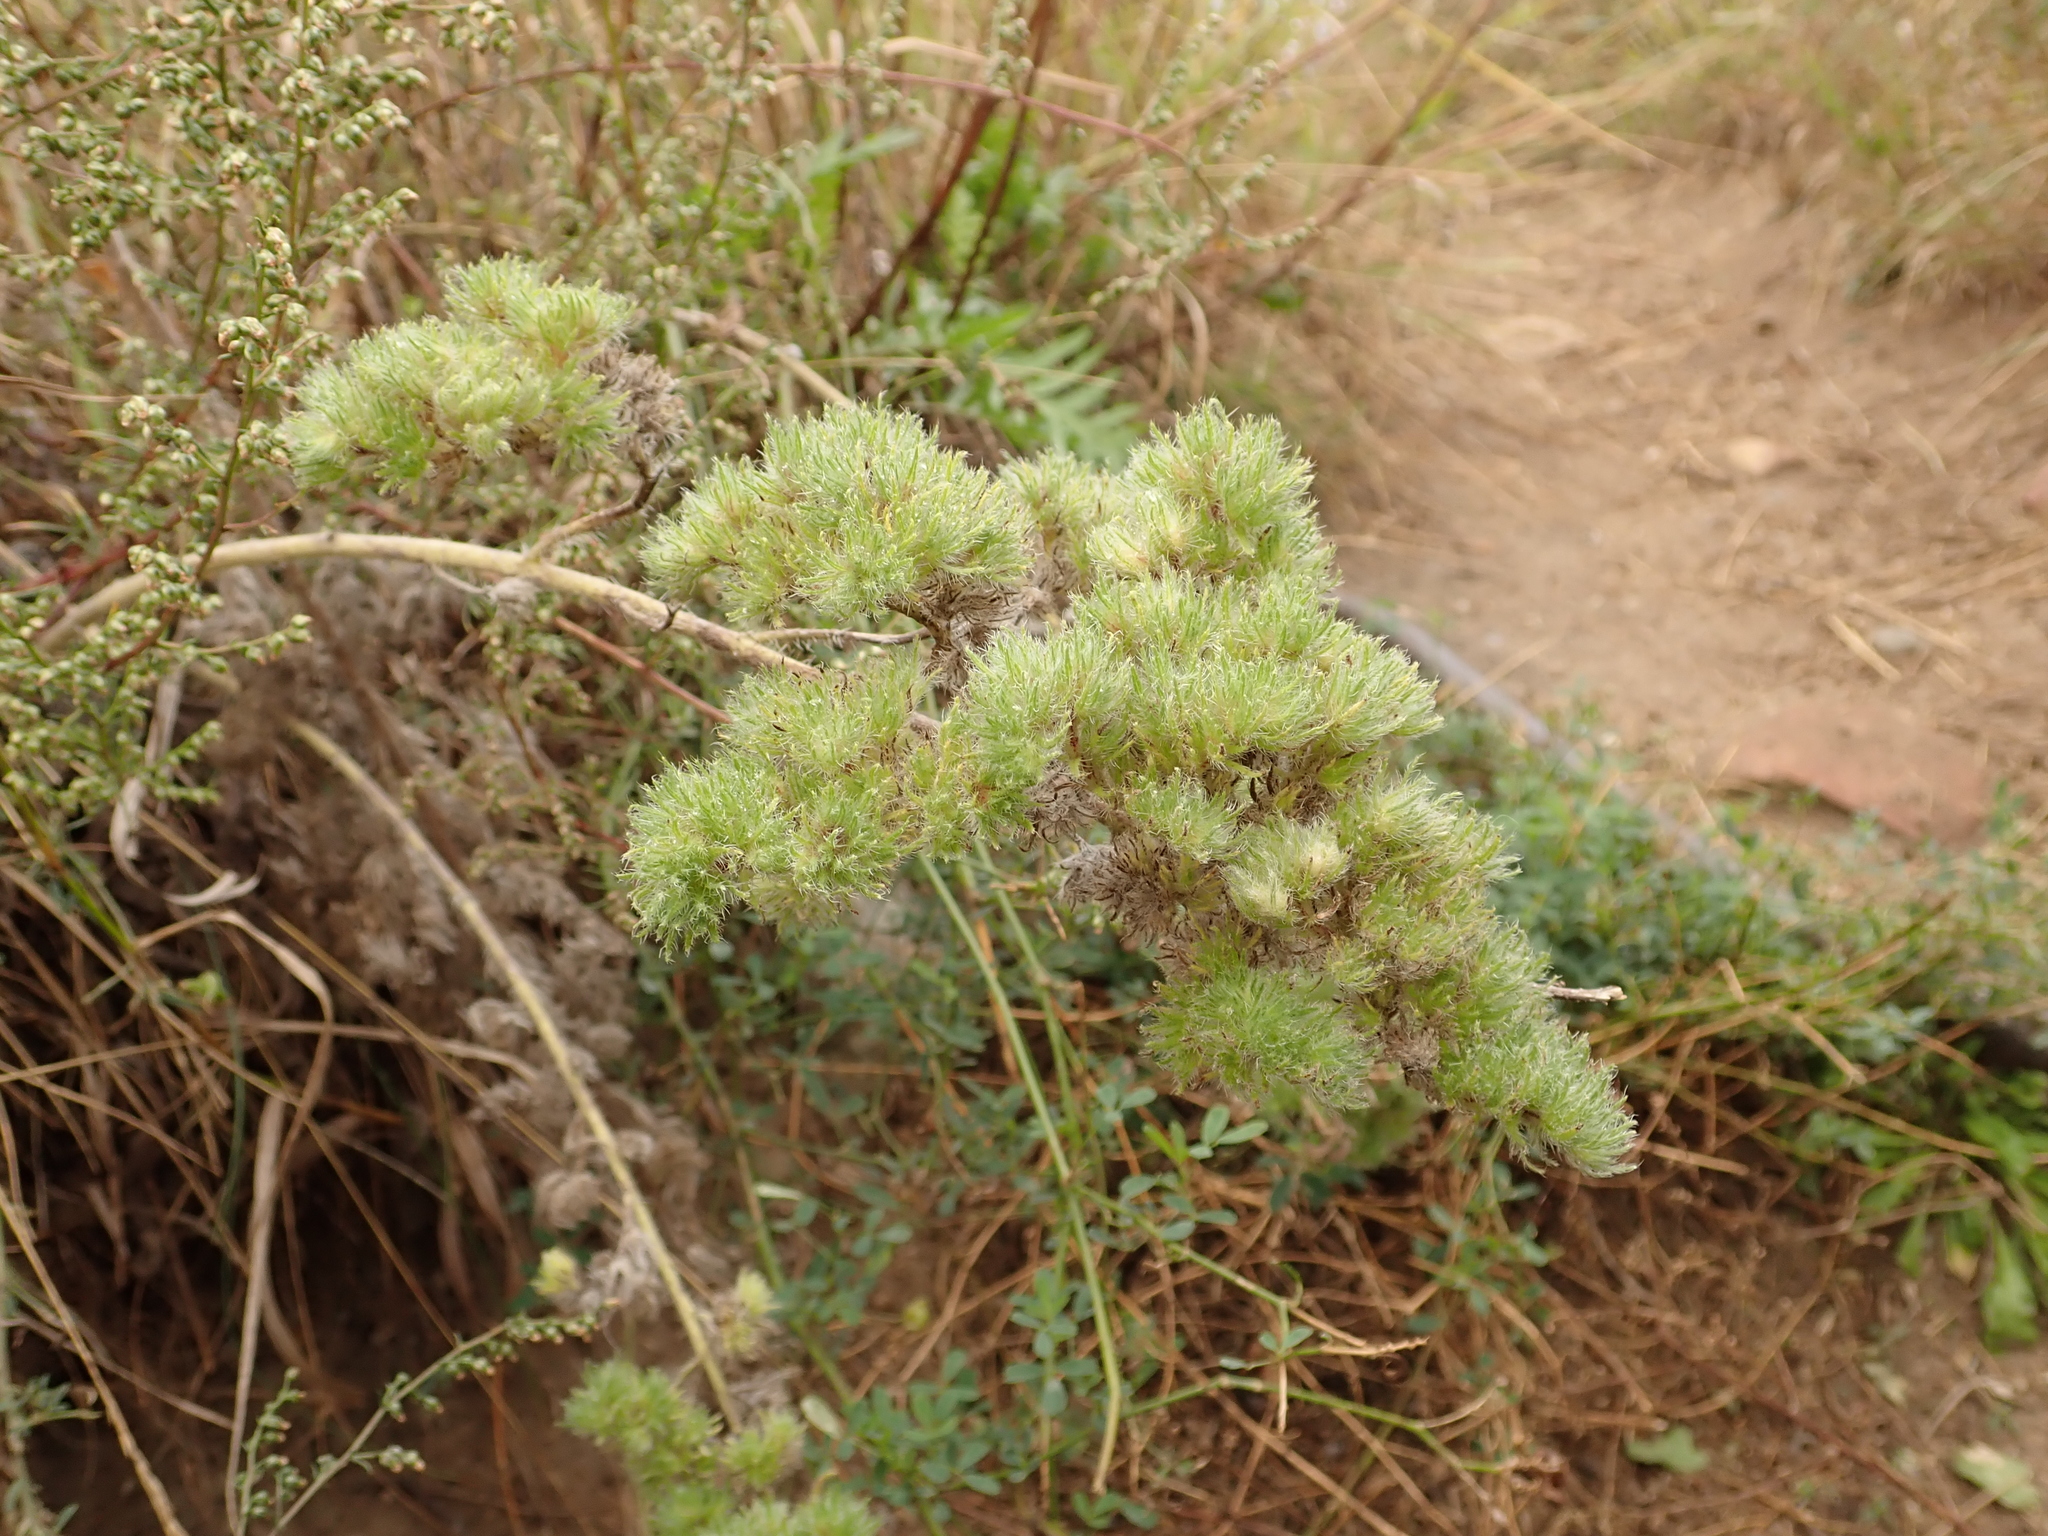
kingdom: Animalia
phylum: Arthropoda
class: Arachnida
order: Trombidiformes
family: Eriophyidae
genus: Aceria
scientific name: Aceria echii
